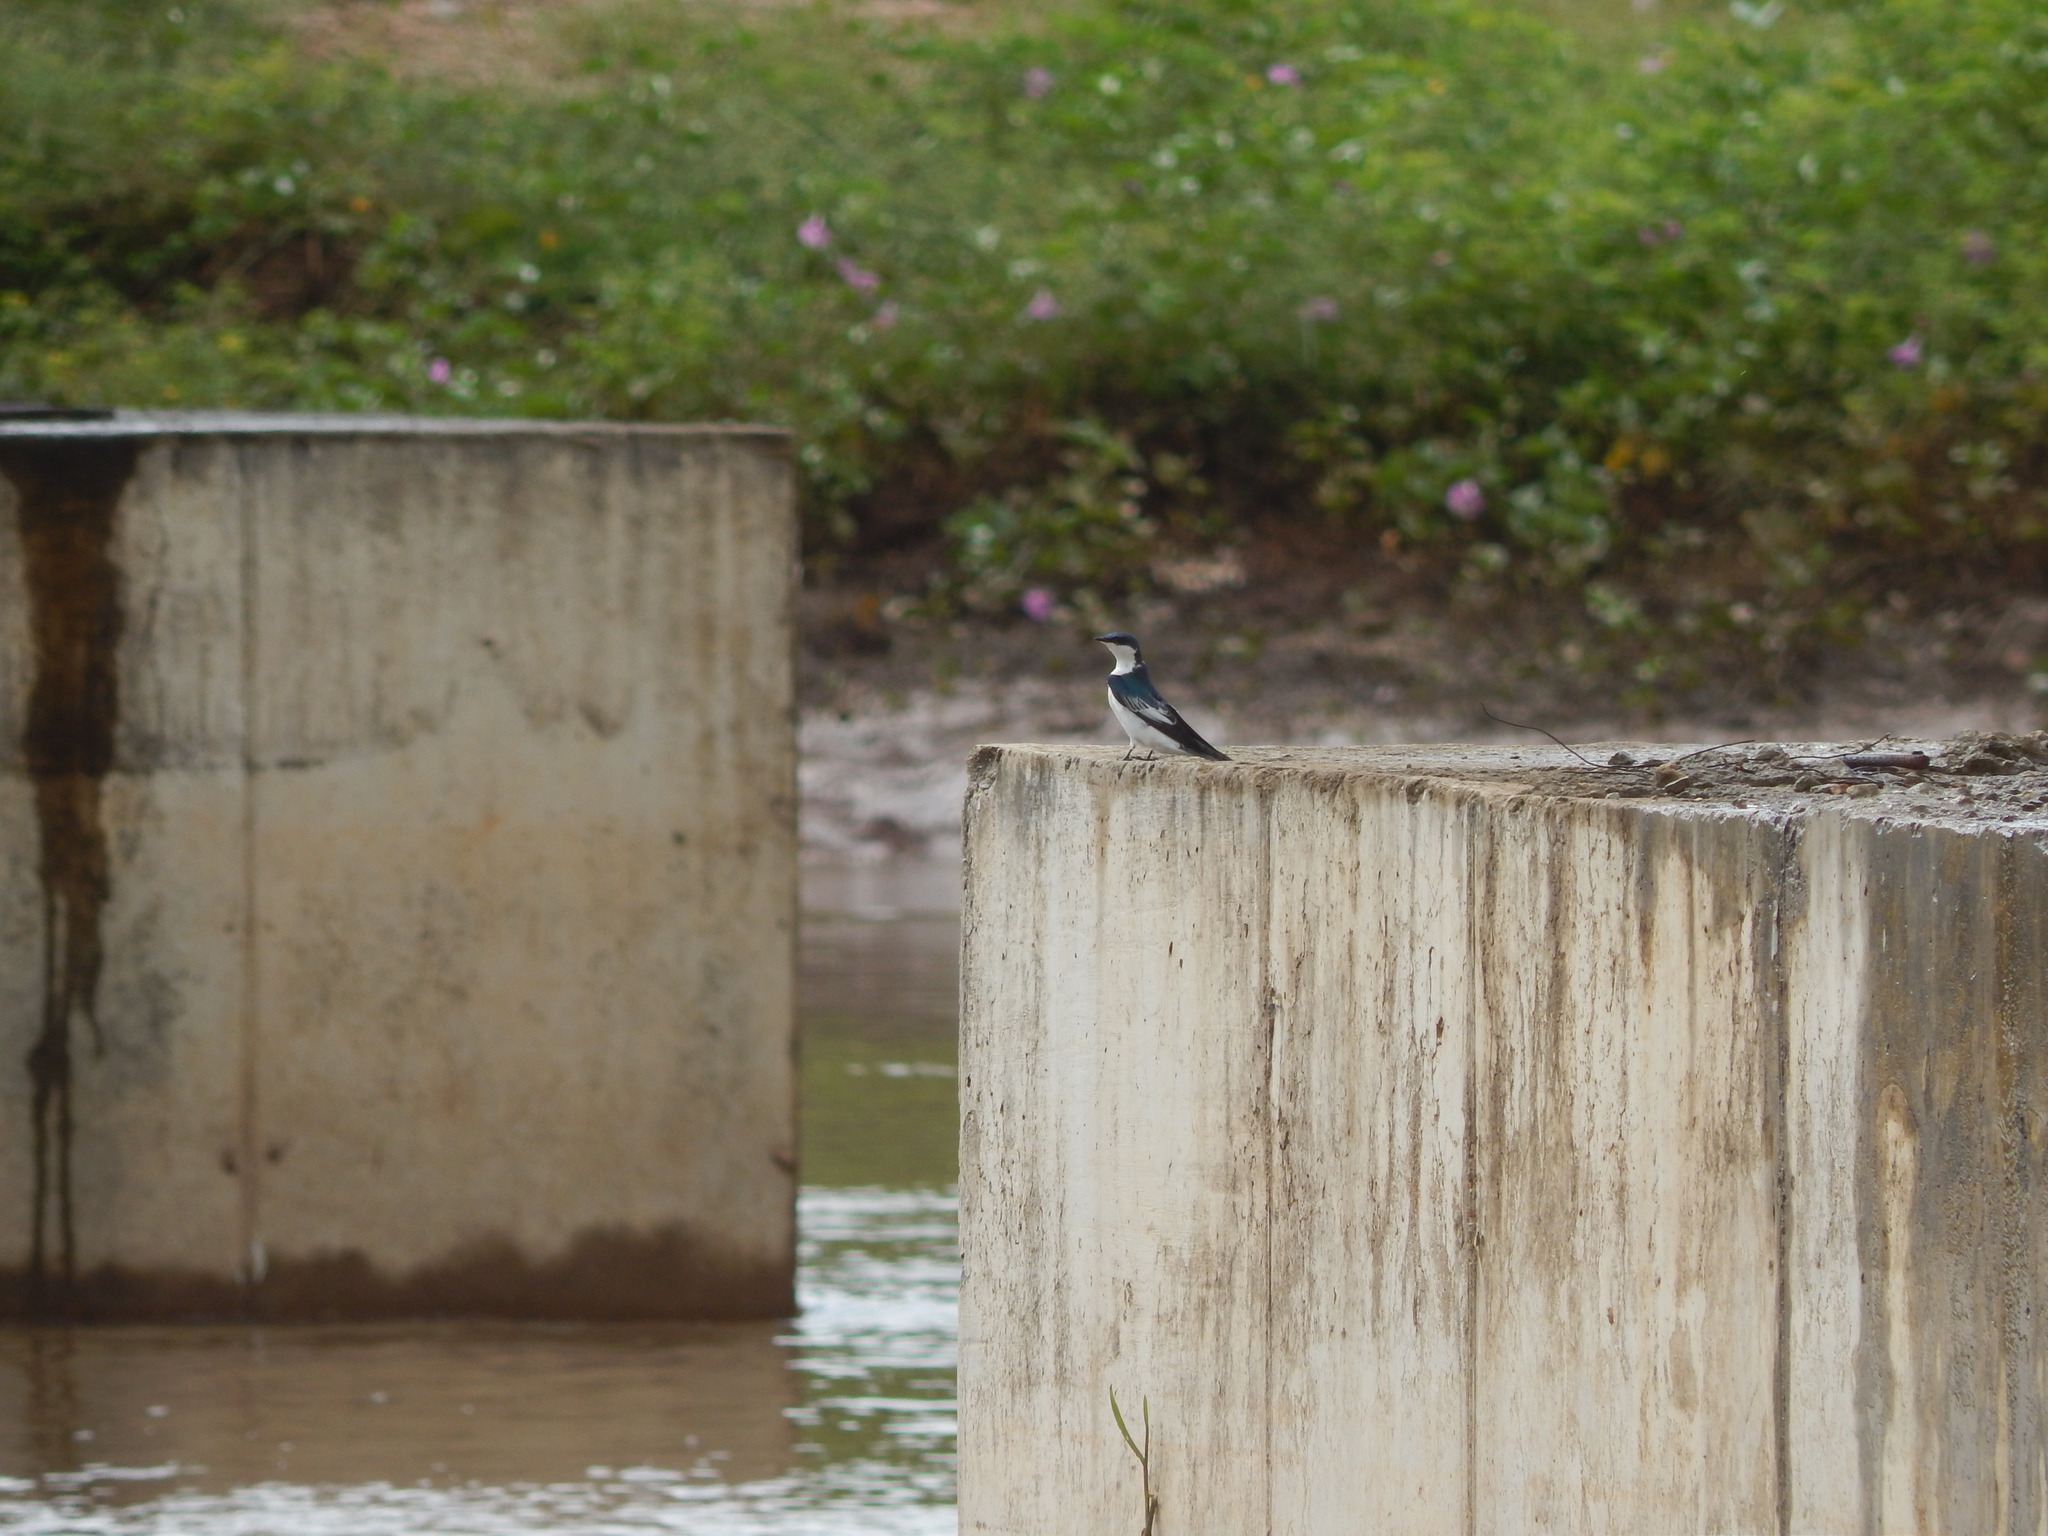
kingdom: Animalia
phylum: Chordata
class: Aves
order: Passeriformes
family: Hirundinidae
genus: Tachycineta
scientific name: Tachycineta albiventer
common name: White-winged swallow
